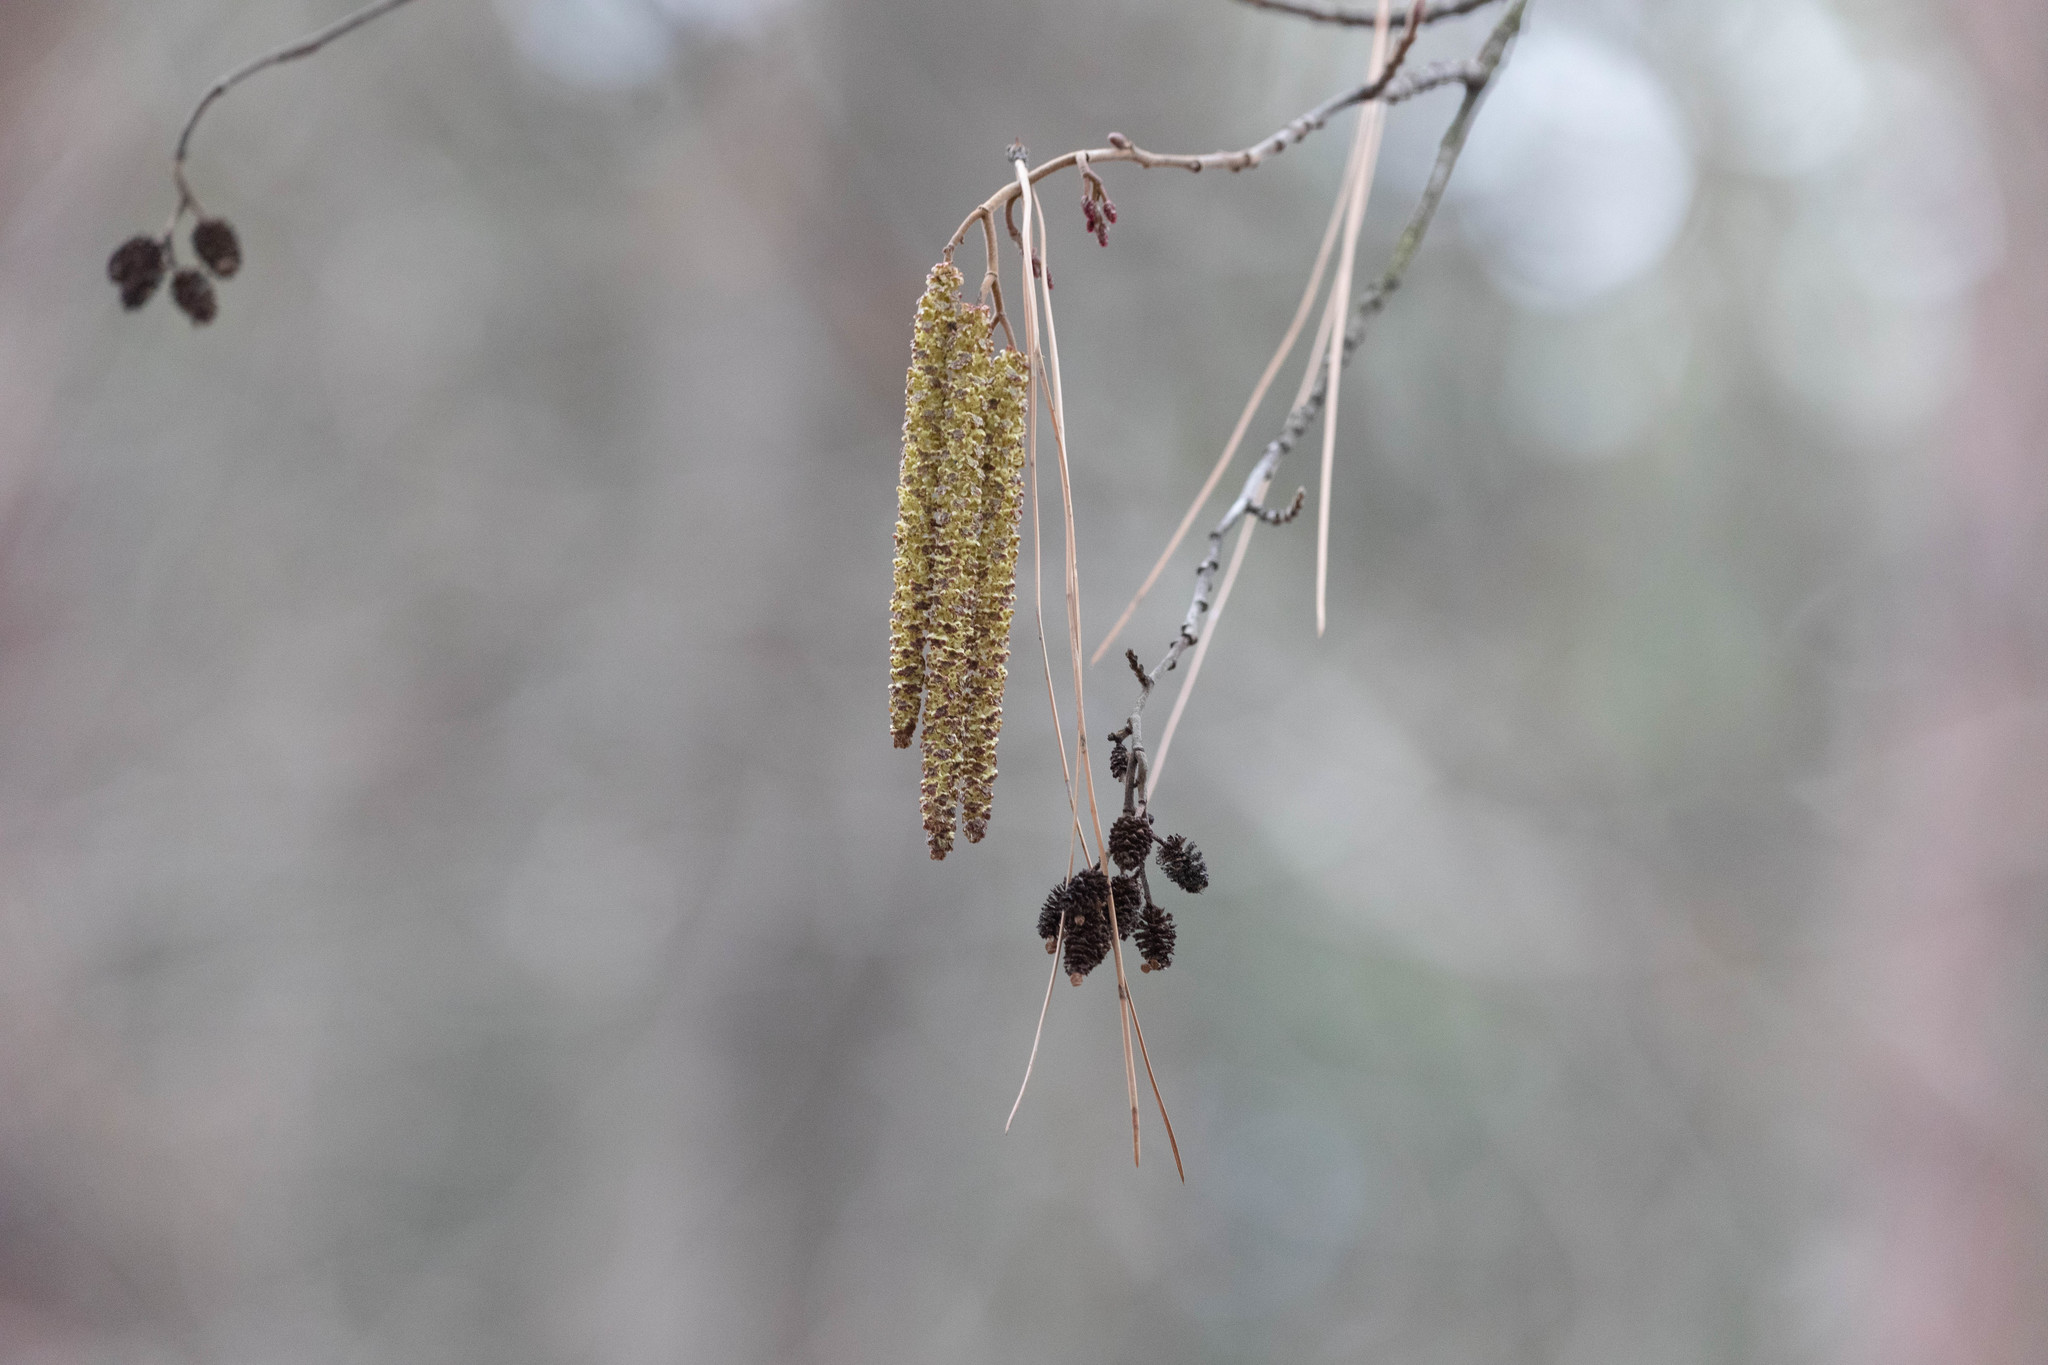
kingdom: Plantae
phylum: Tracheophyta
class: Magnoliopsida
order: Fagales
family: Betulaceae
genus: Alnus
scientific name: Alnus incana
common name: Grey alder
